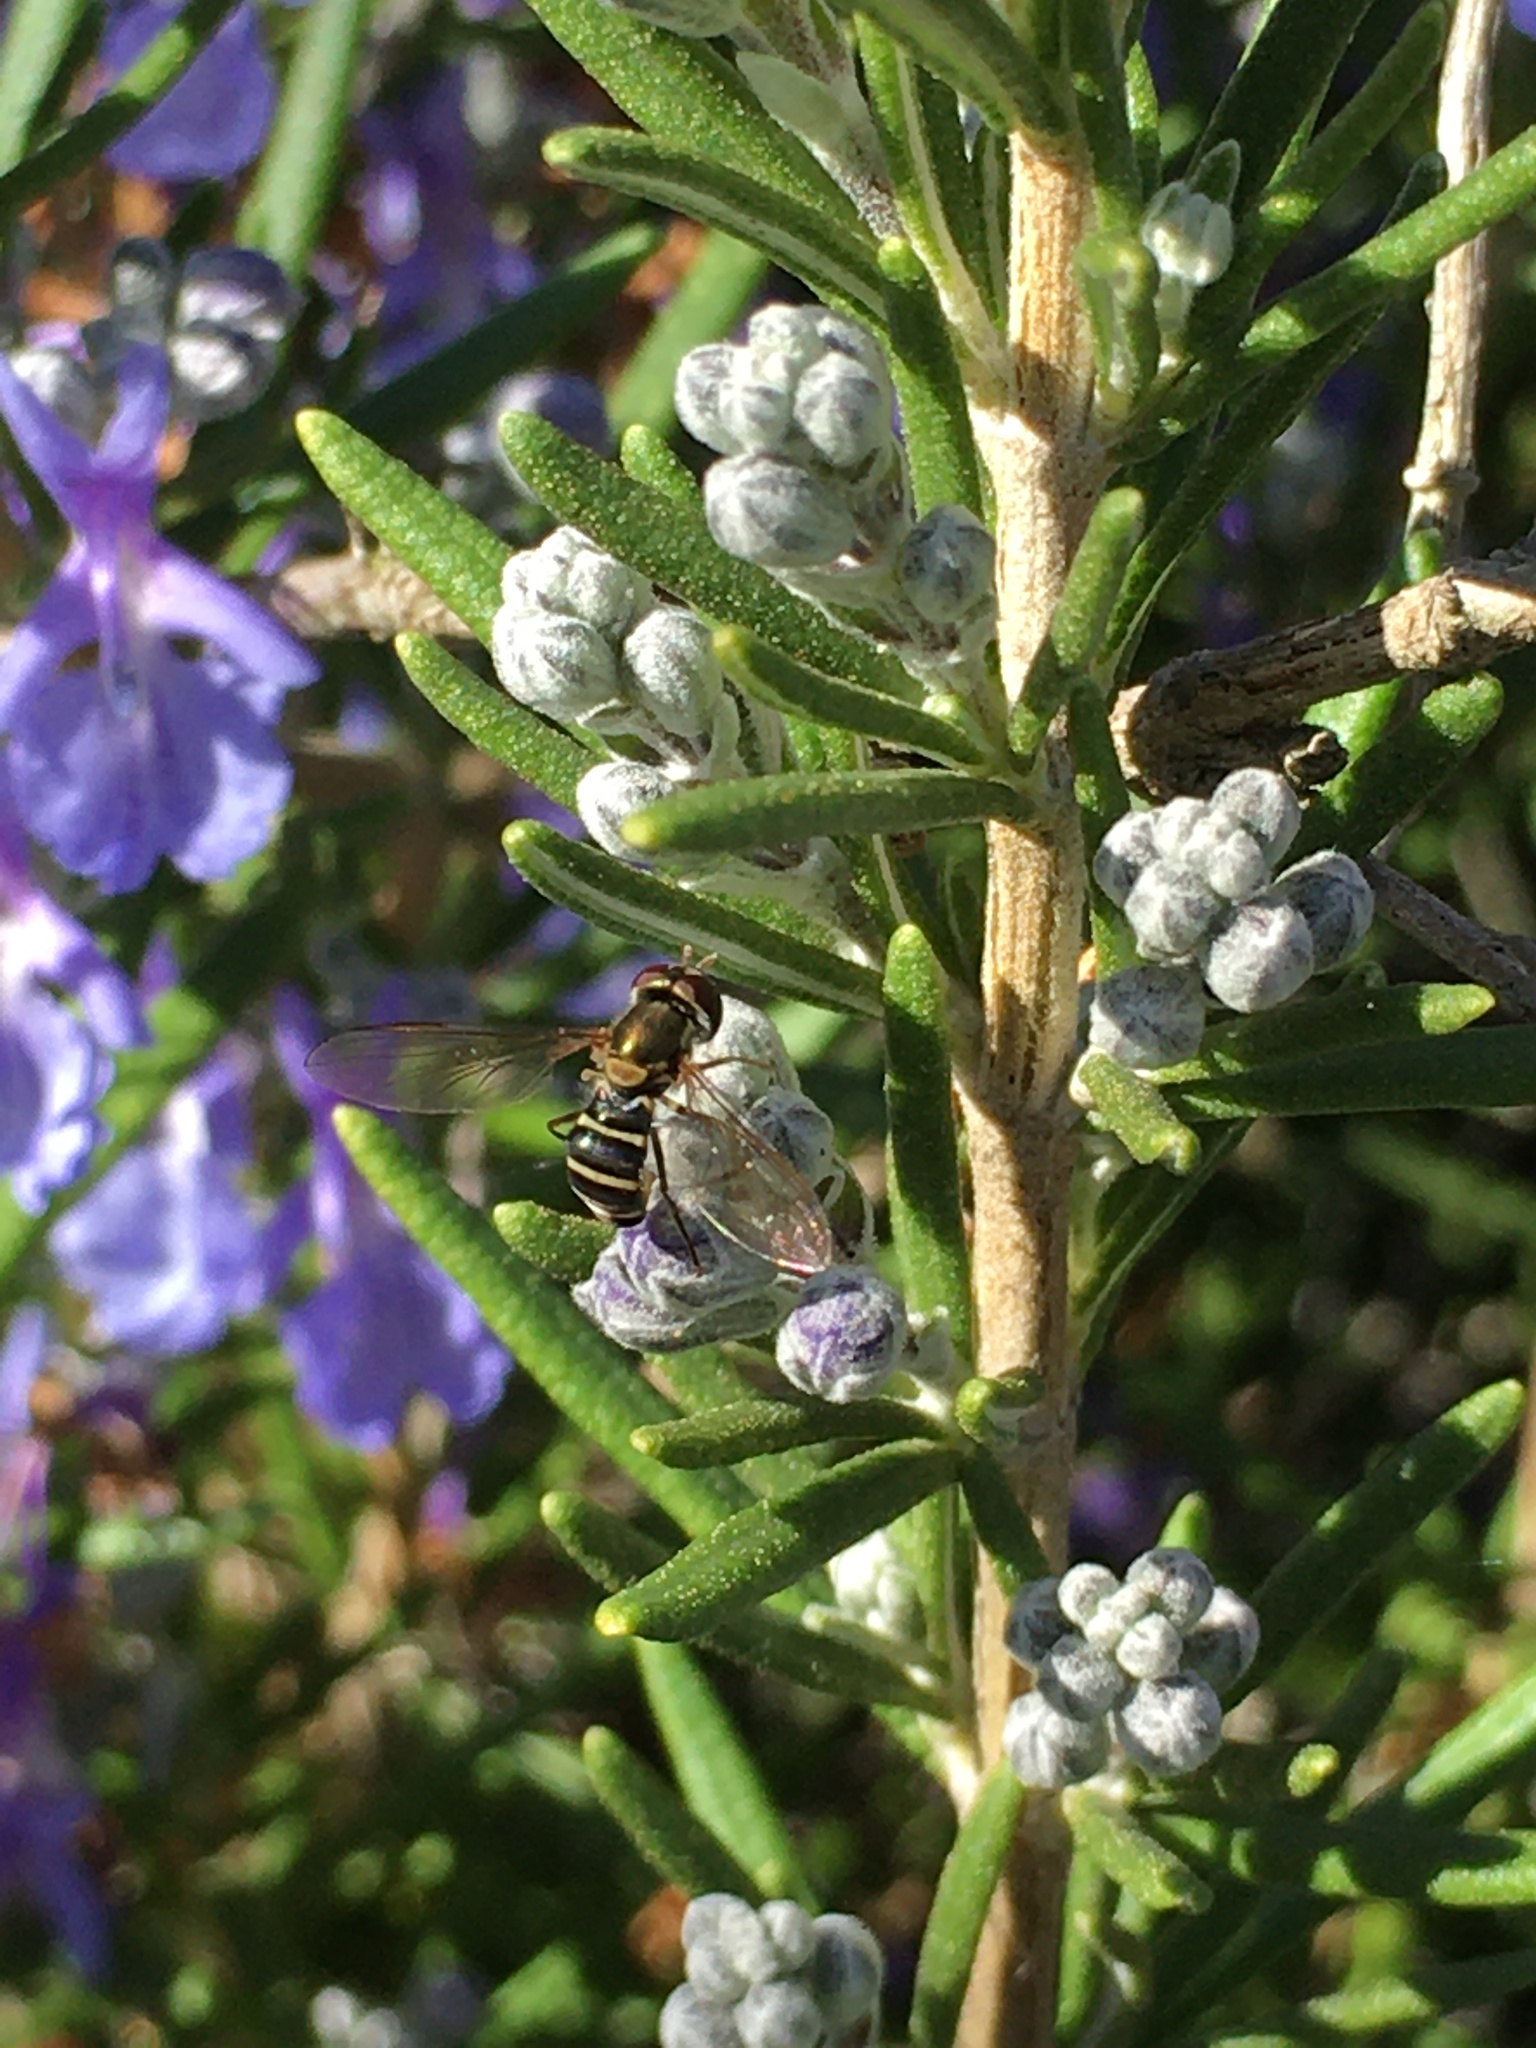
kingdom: Animalia
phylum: Arthropoda
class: Insecta
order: Diptera
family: Syrphidae
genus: Fazia
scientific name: Fazia micrura
